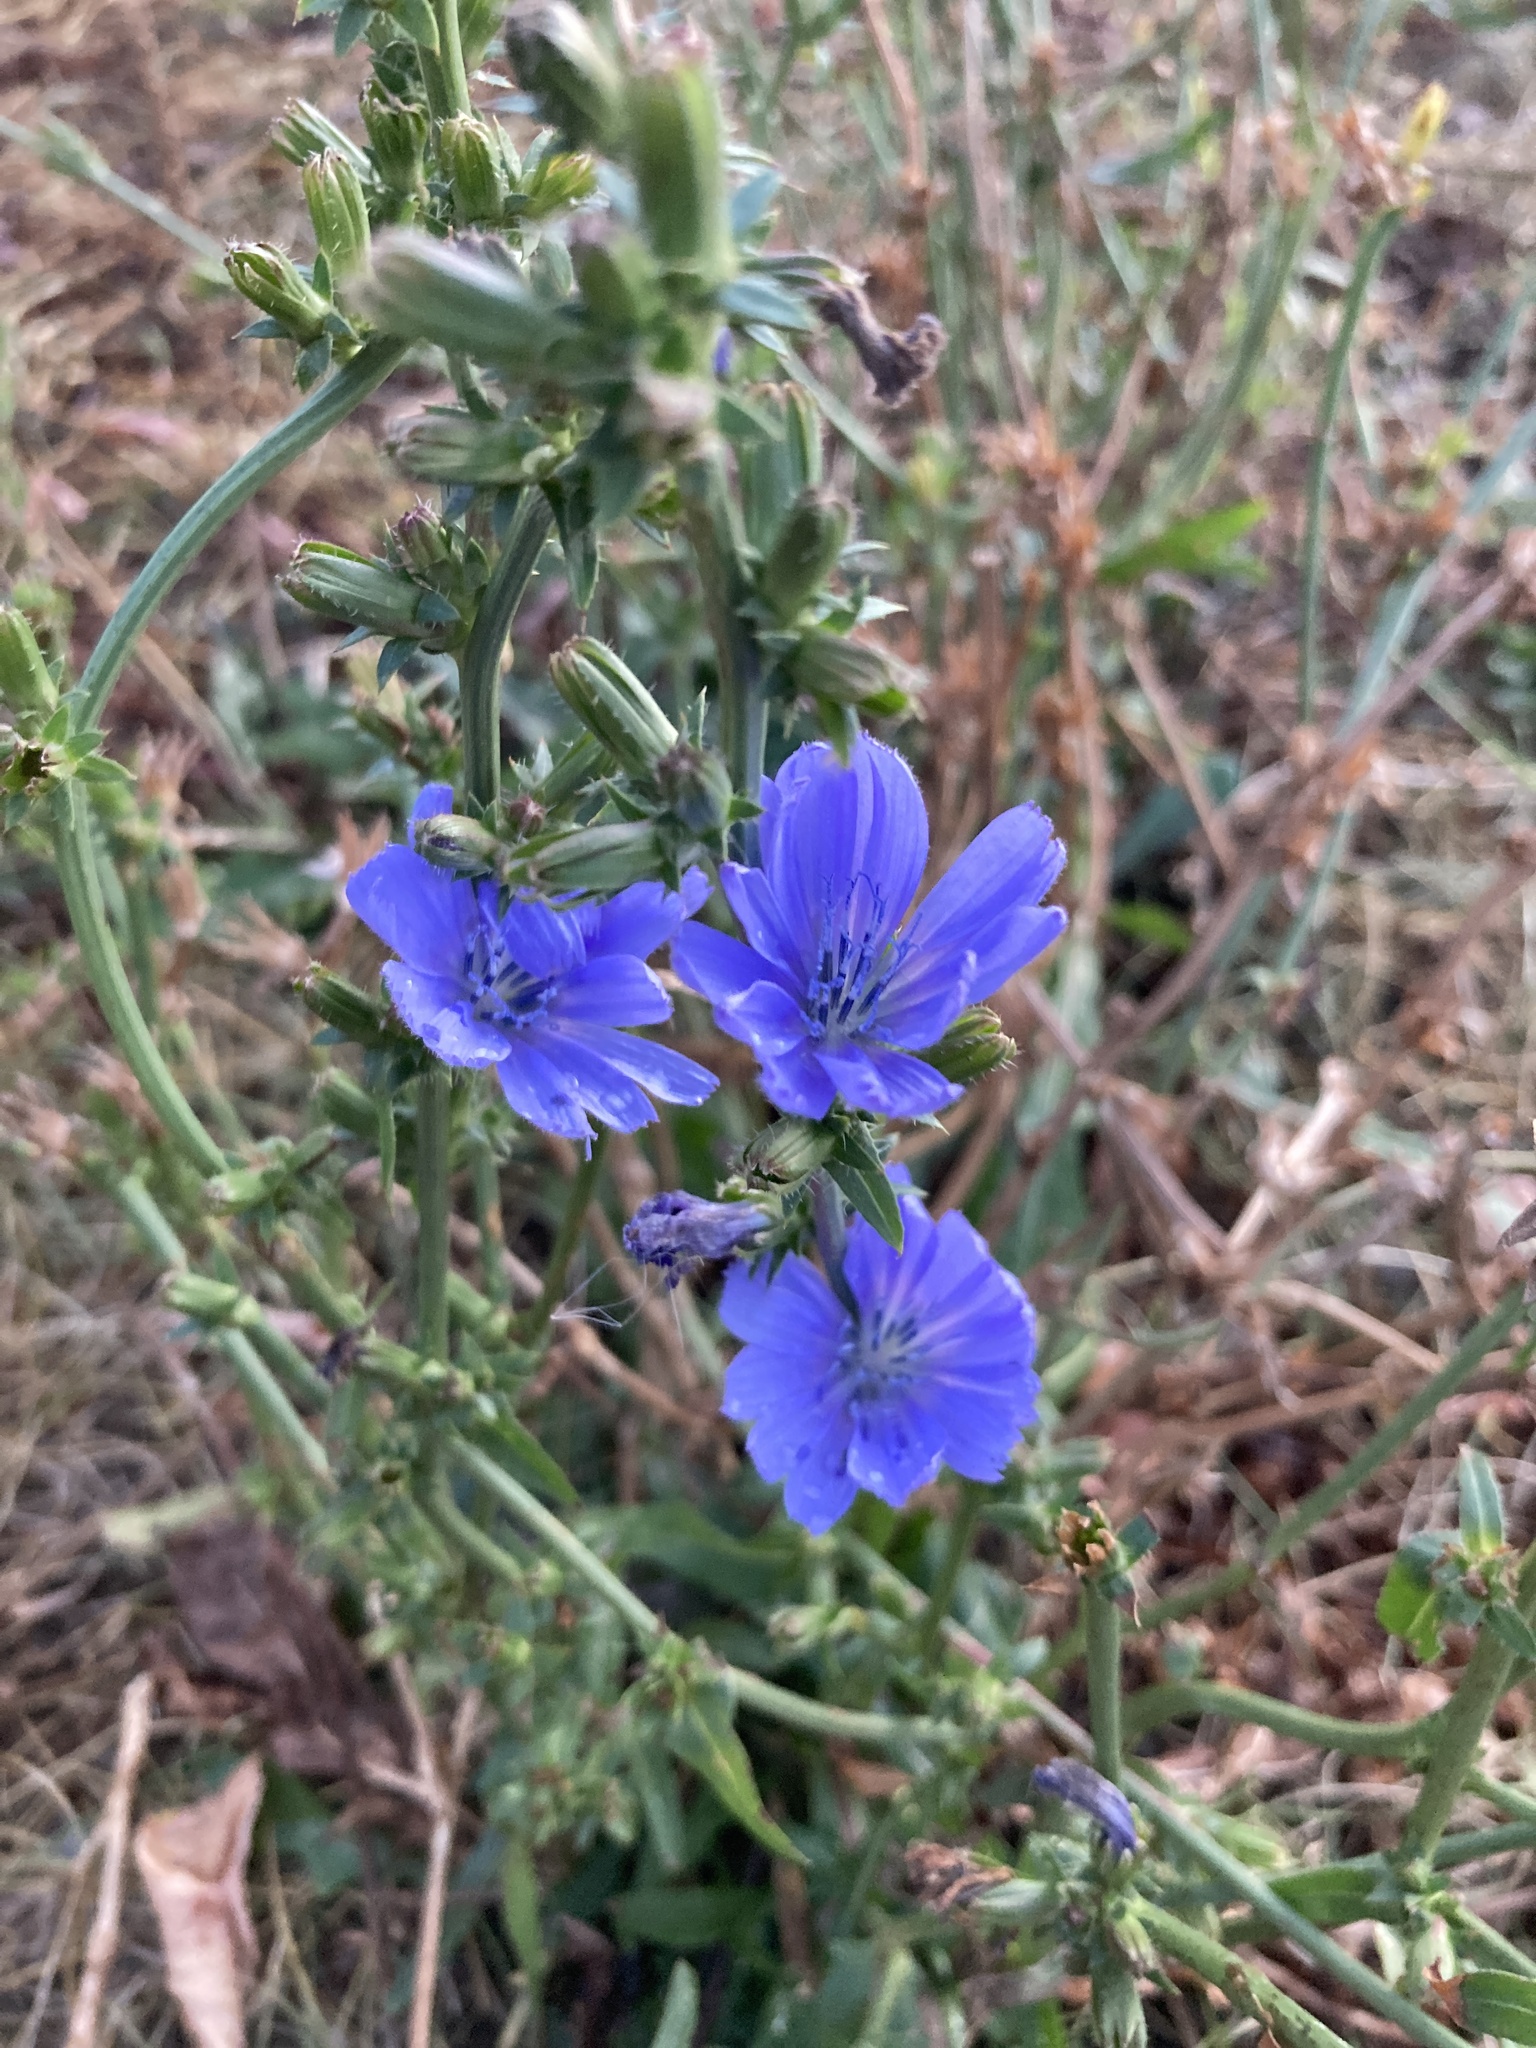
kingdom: Plantae
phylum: Tracheophyta
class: Magnoliopsida
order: Asterales
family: Asteraceae
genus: Cichorium
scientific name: Cichorium intybus
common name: Chicory
